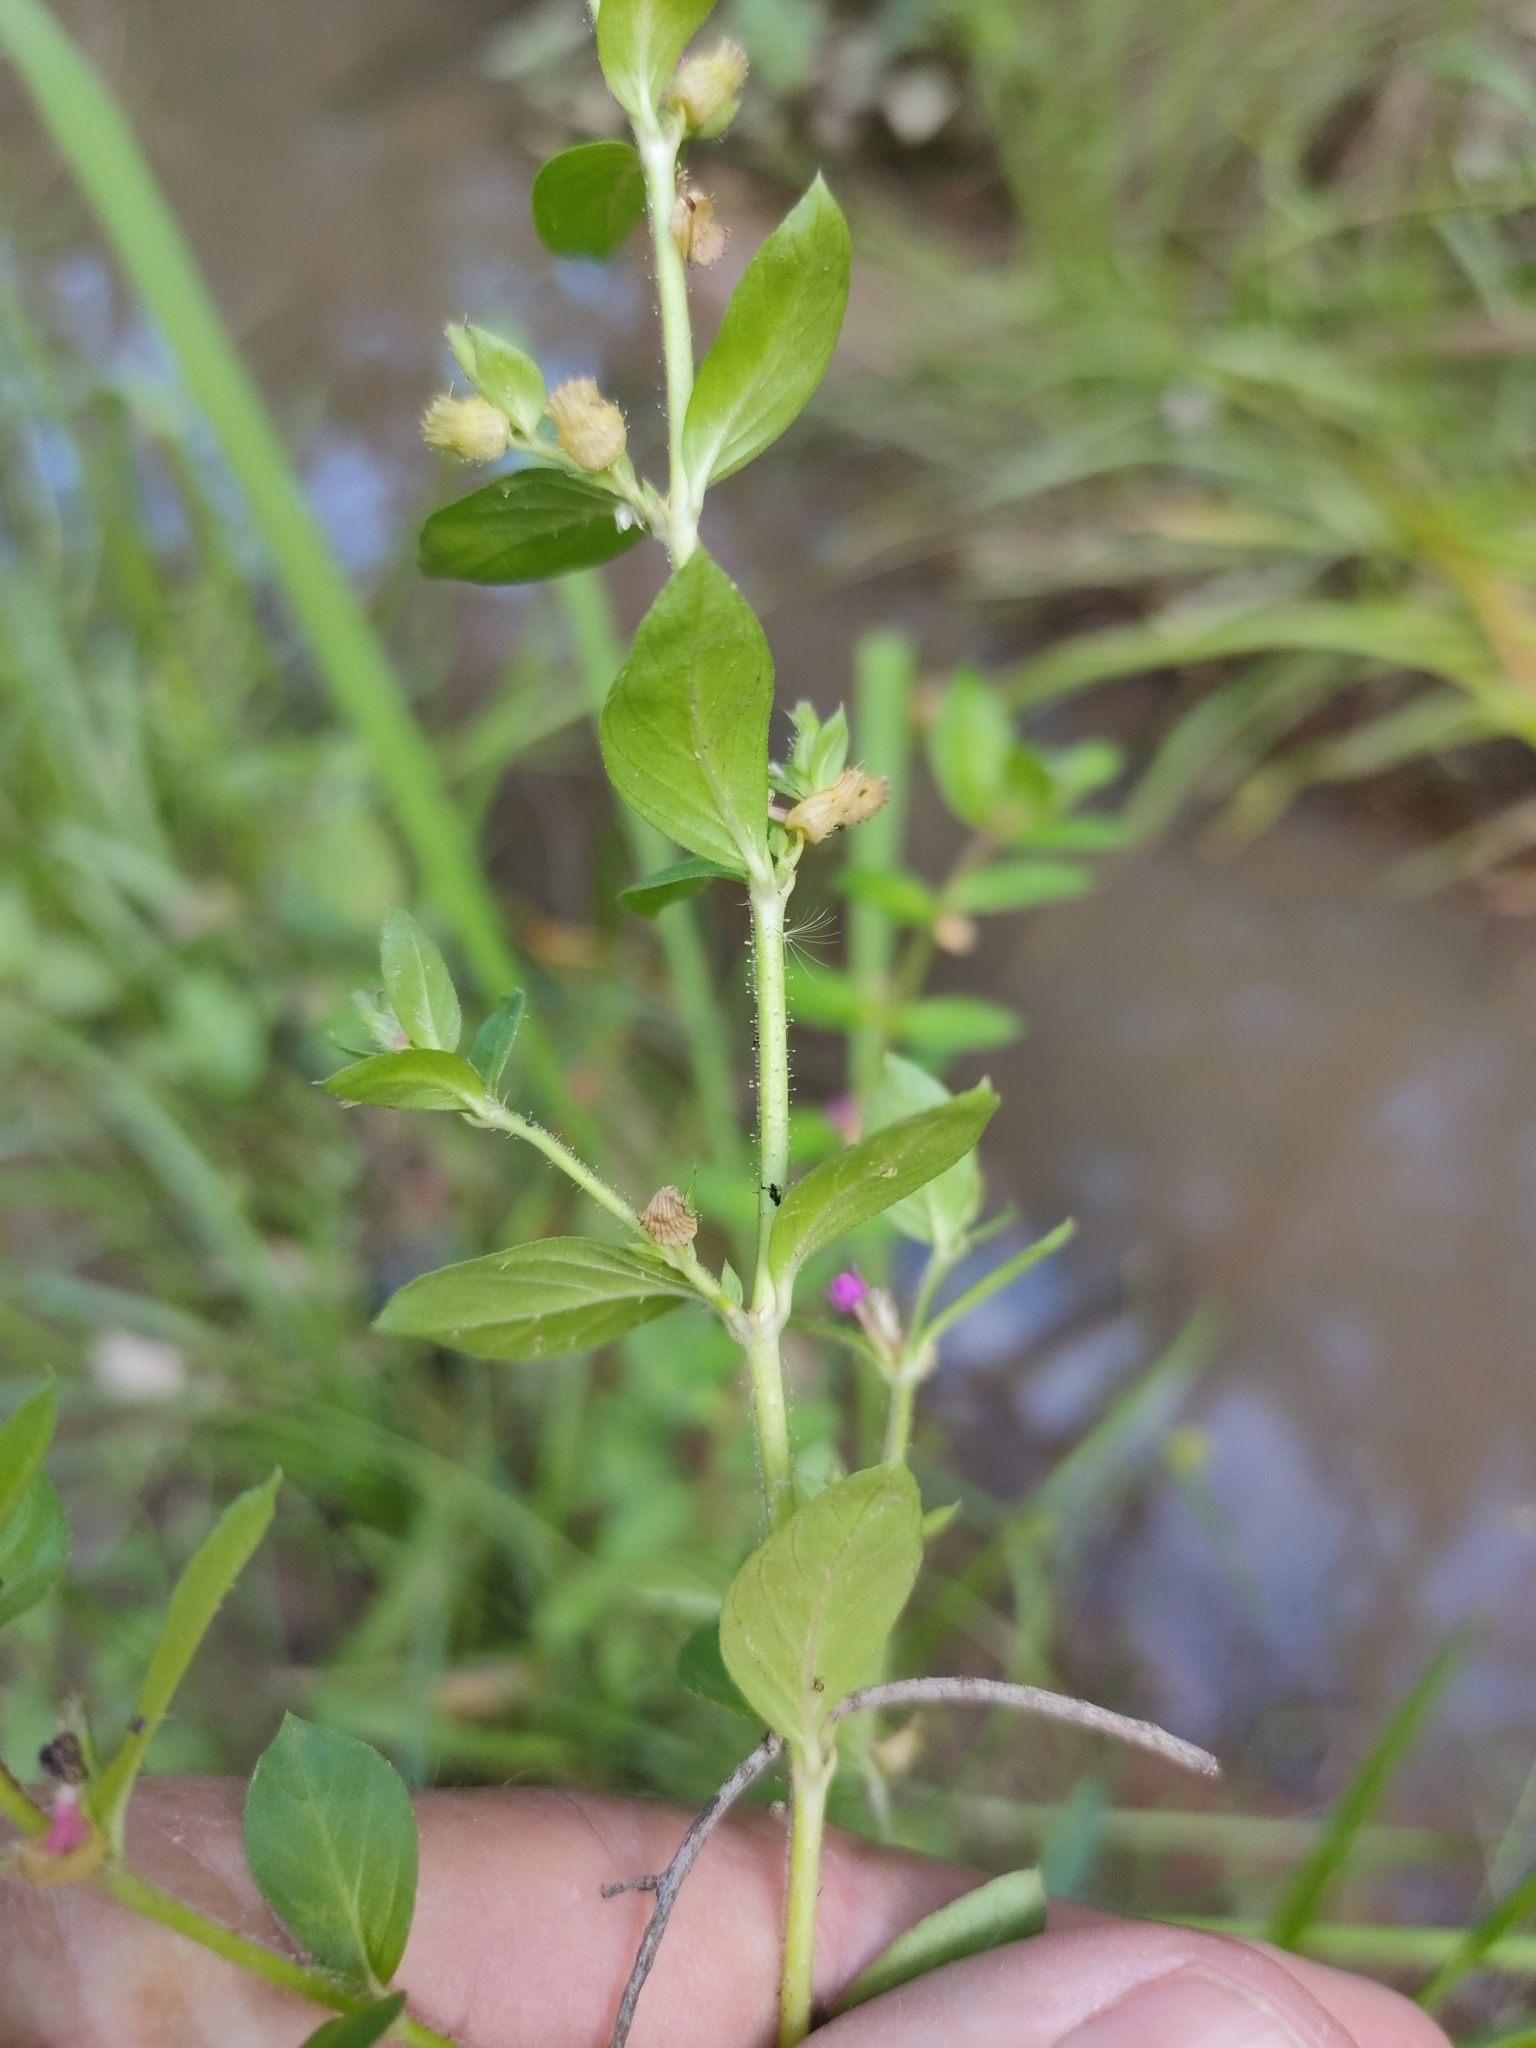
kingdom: Plantae
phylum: Tracheophyta
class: Magnoliopsida
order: Myrtales
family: Lythraceae
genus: Cuphea
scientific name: Cuphea carthagenensis
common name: Colombian waxweed
